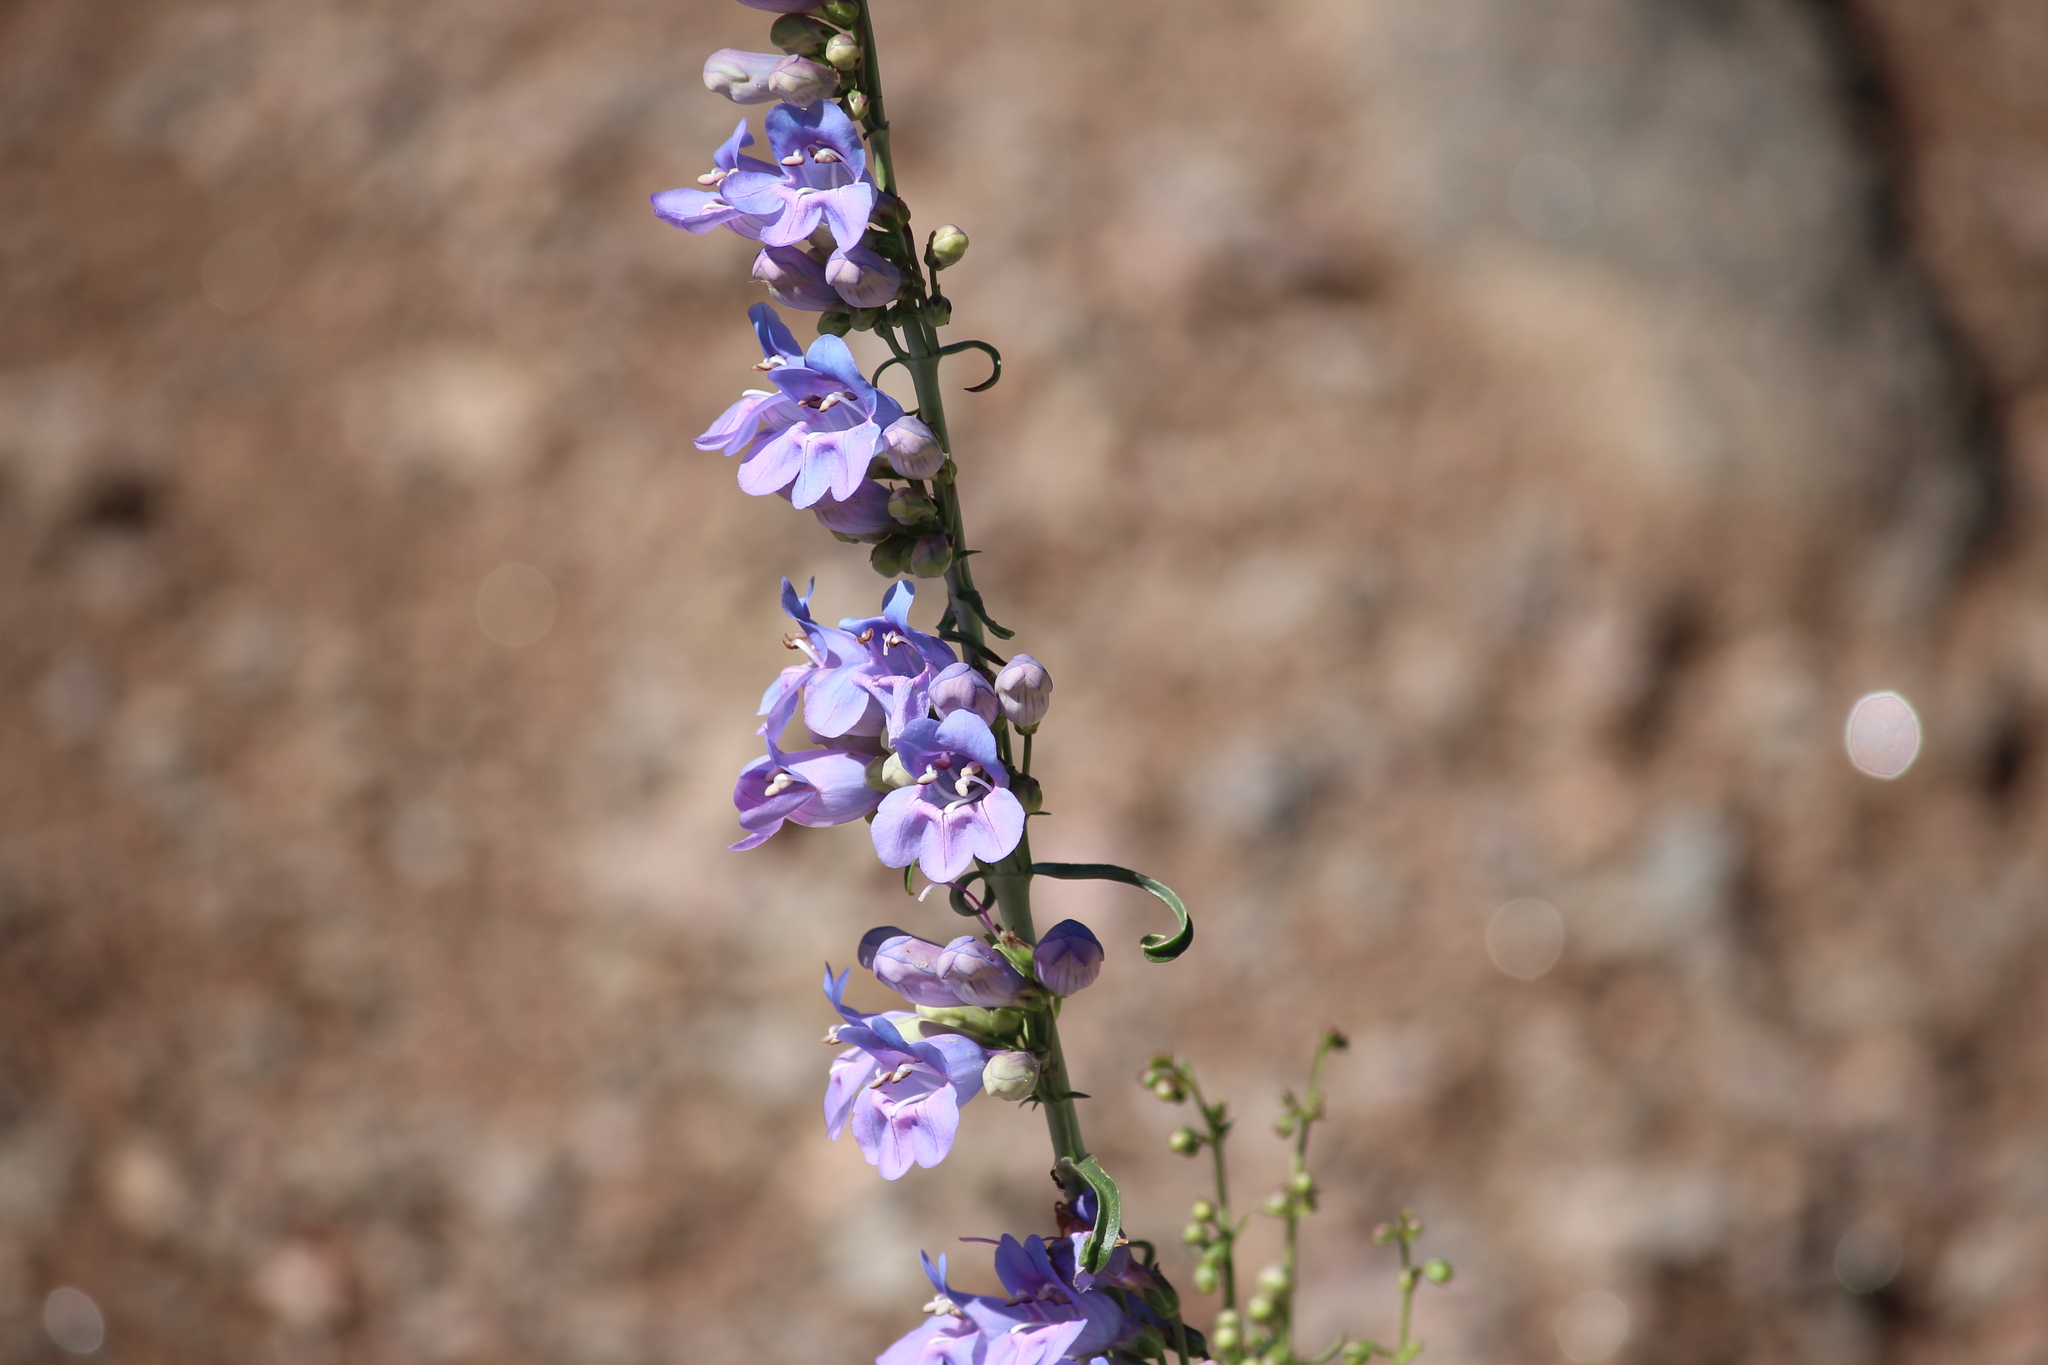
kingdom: Plantae
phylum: Tracheophyta
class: Magnoliopsida
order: Lamiales
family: Plantaginaceae
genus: Penstemon
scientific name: Penstemon virgatus
